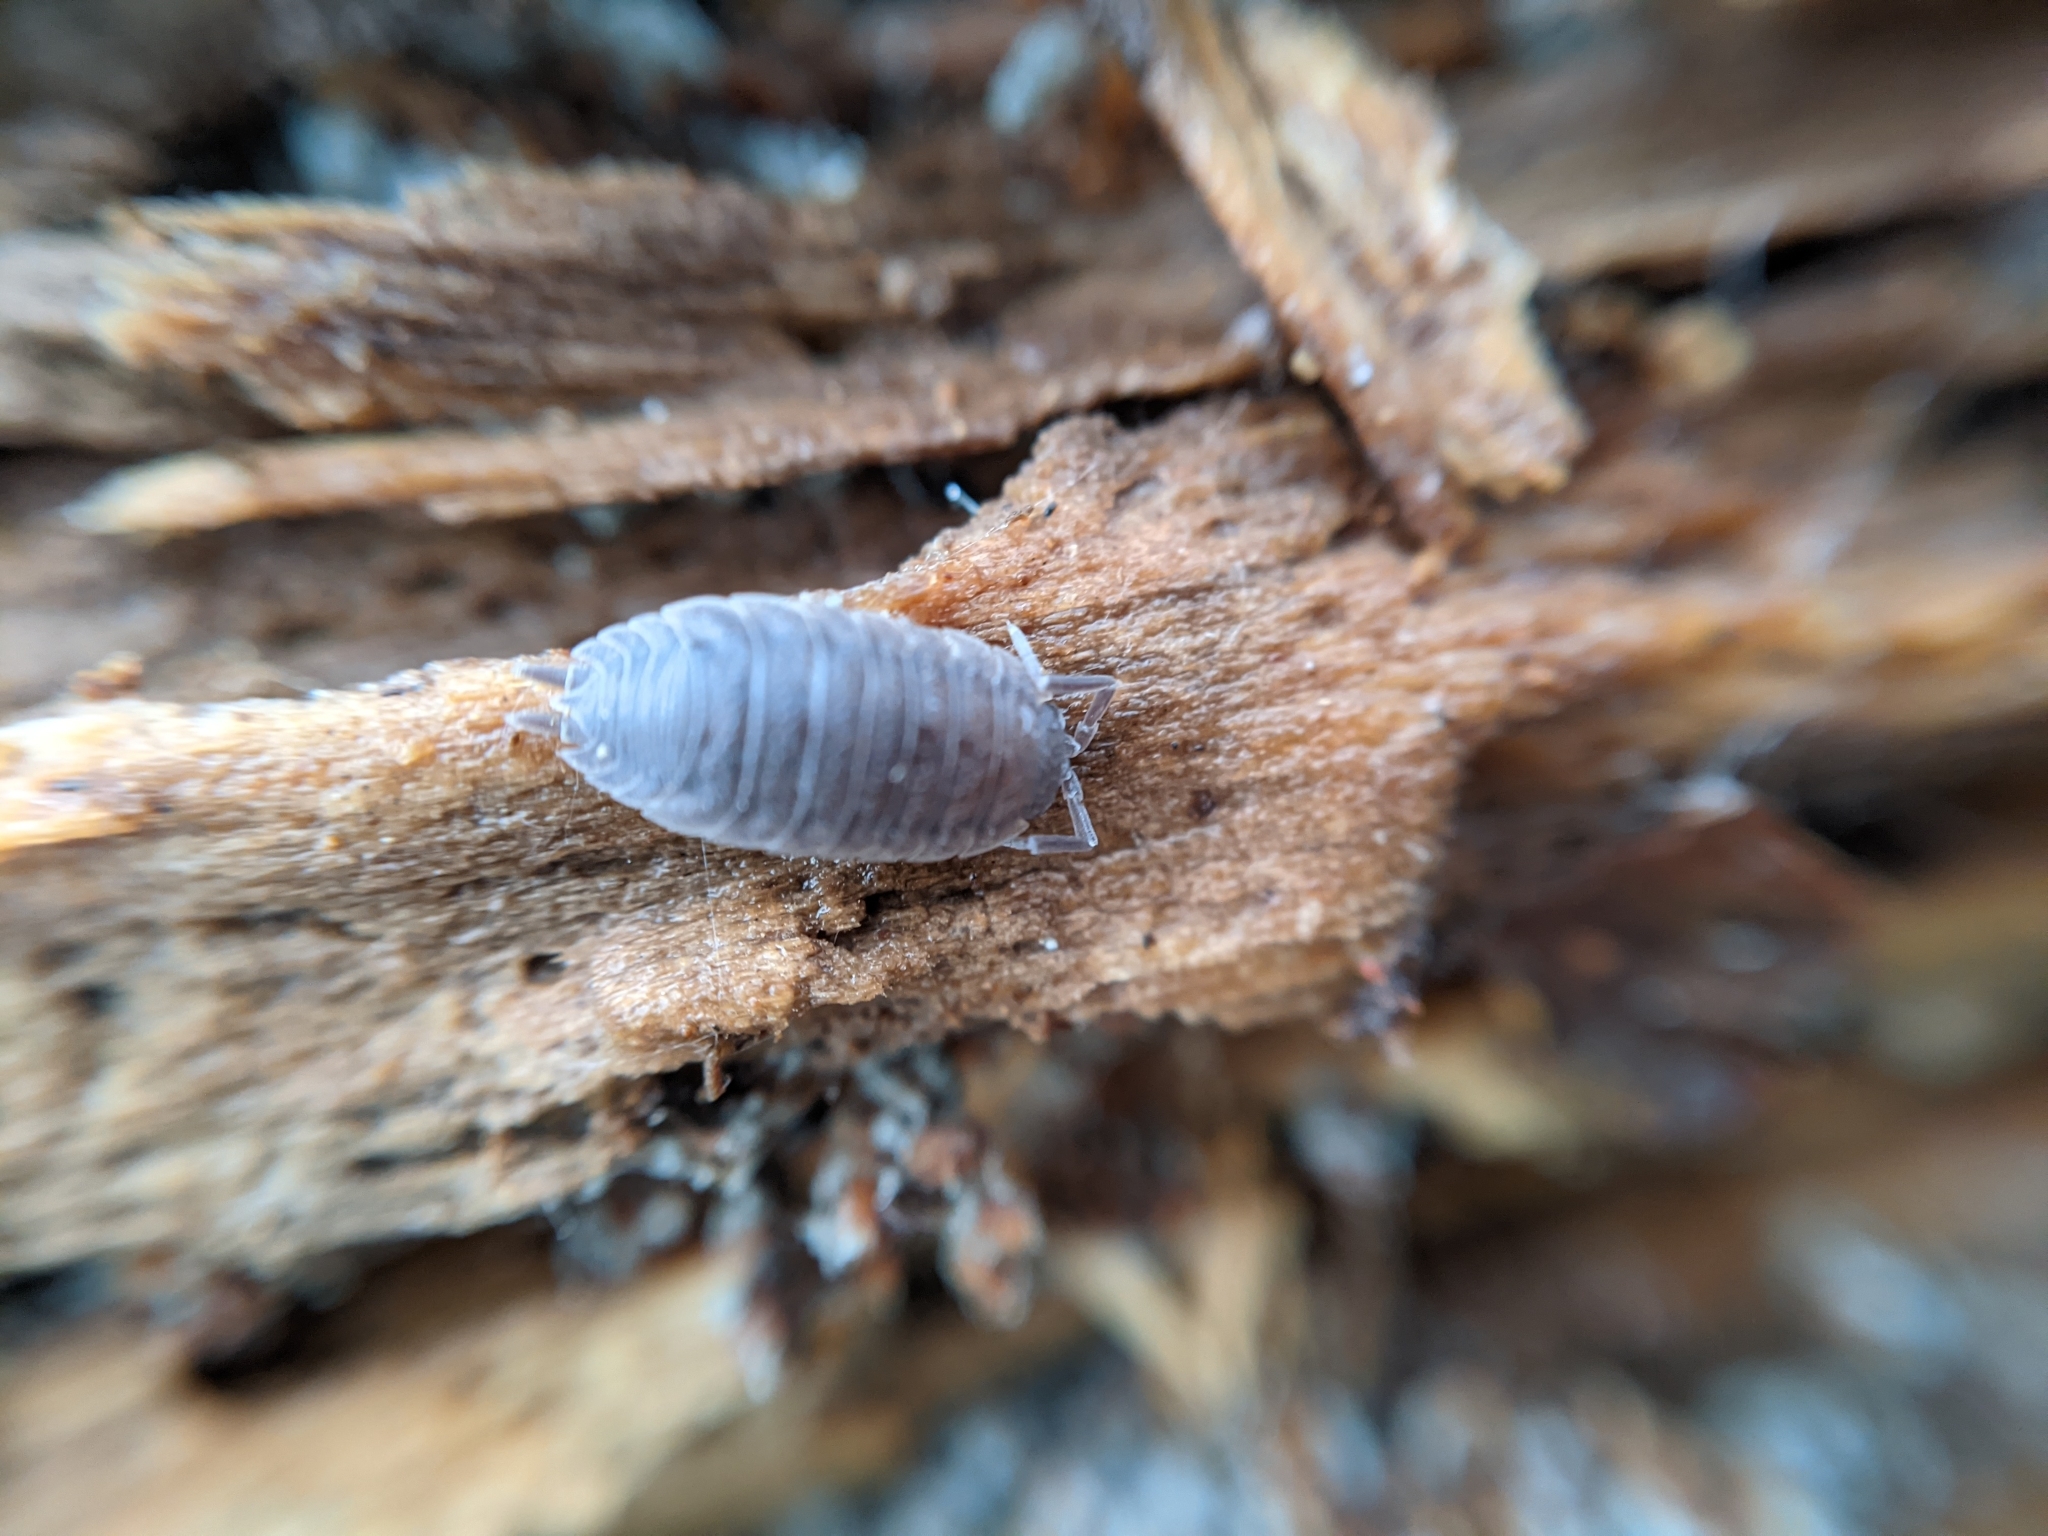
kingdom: Animalia
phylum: Arthropoda
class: Malacostraca
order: Isopoda
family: Porcellionidae
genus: Porcellio
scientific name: Porcellio scaber
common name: Common rough woodlouse
